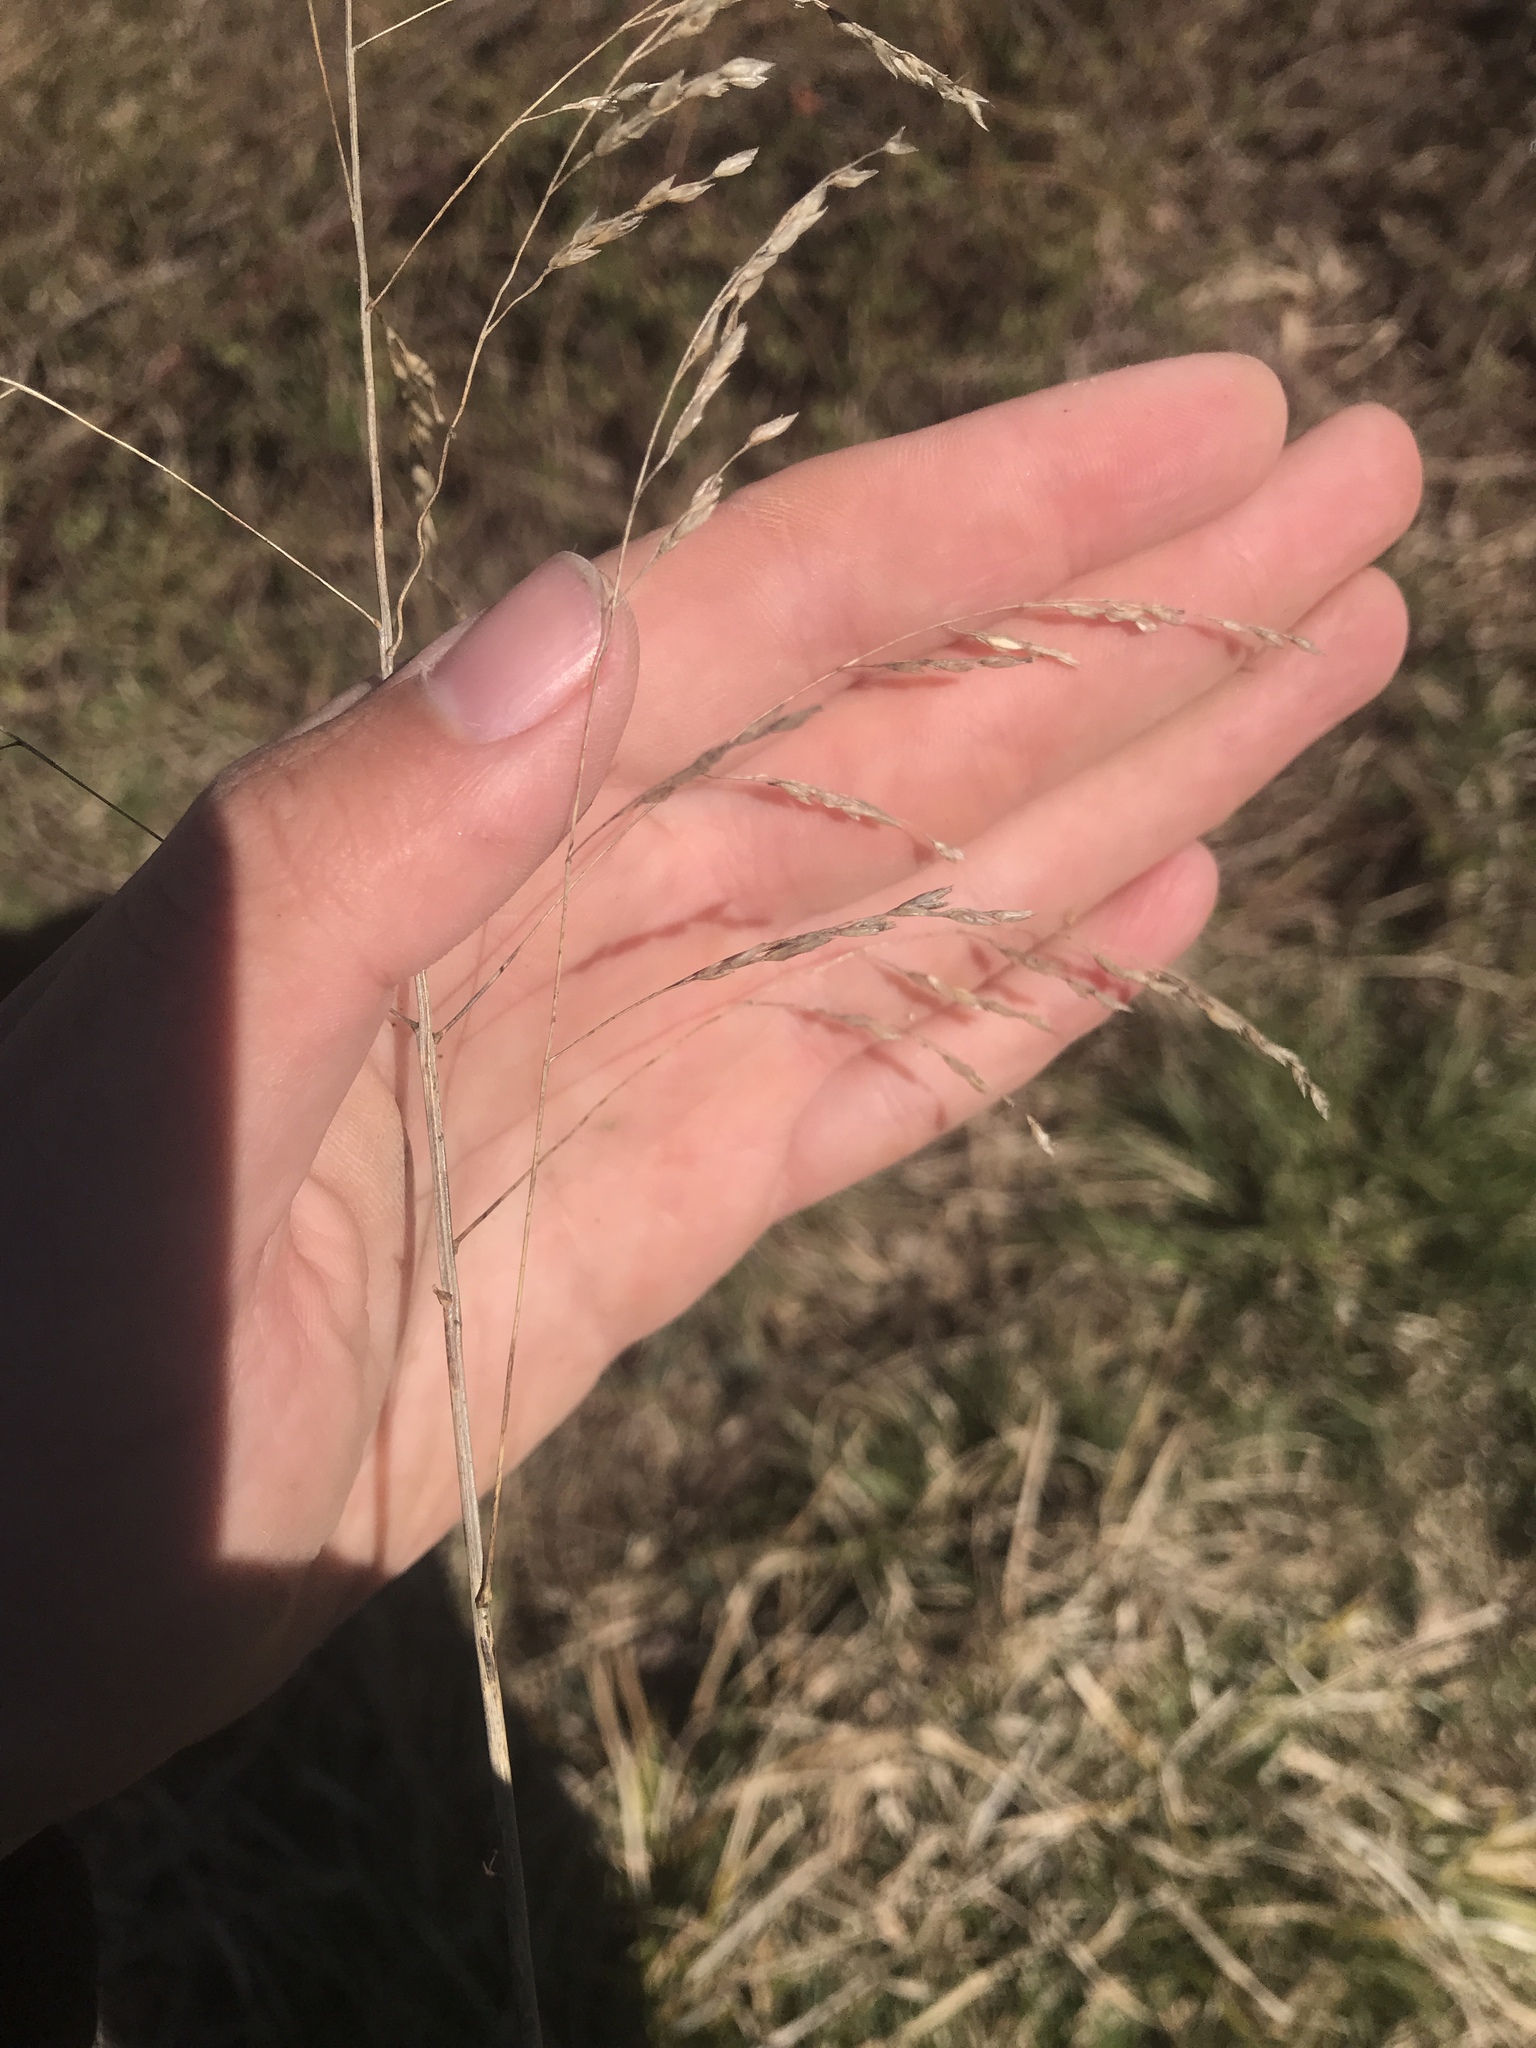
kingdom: Plantae
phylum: Tracheophyta
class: Liliopsida
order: Poales
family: Poaceae
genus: Tridens
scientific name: Tridens flavus
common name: Purpletop
